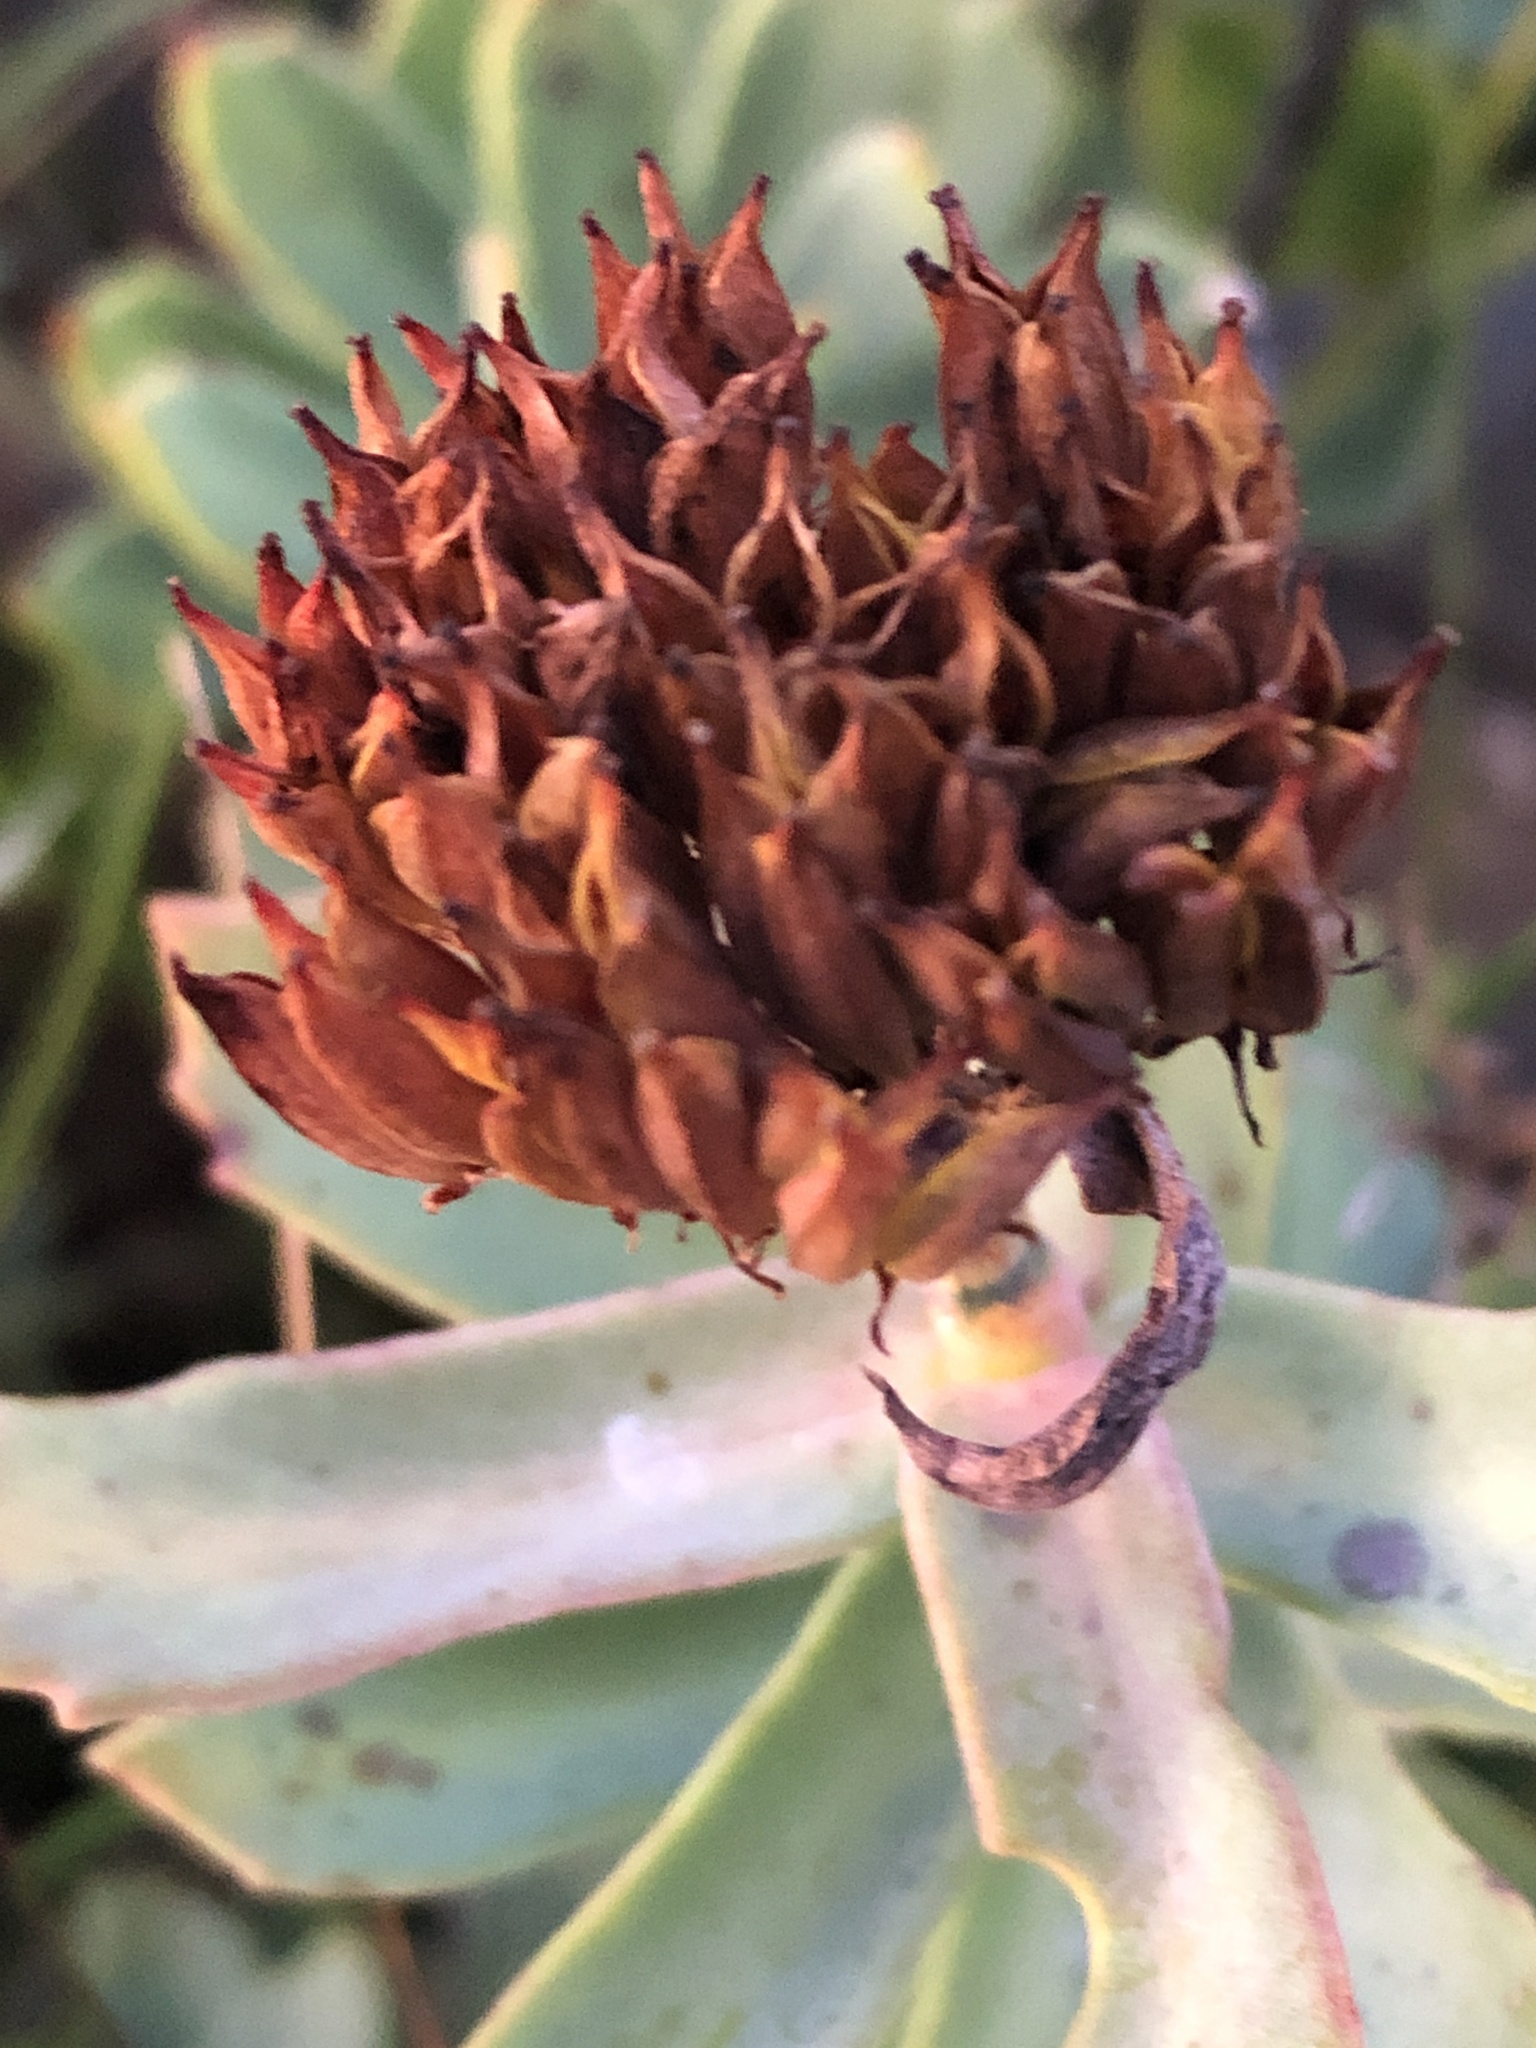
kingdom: Plantae
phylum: Tracheophyta
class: Magnoliopsida
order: Saxifragales
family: Crassulaceae
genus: Rhodiola
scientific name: Rhodiola rosea
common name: Roseroot
